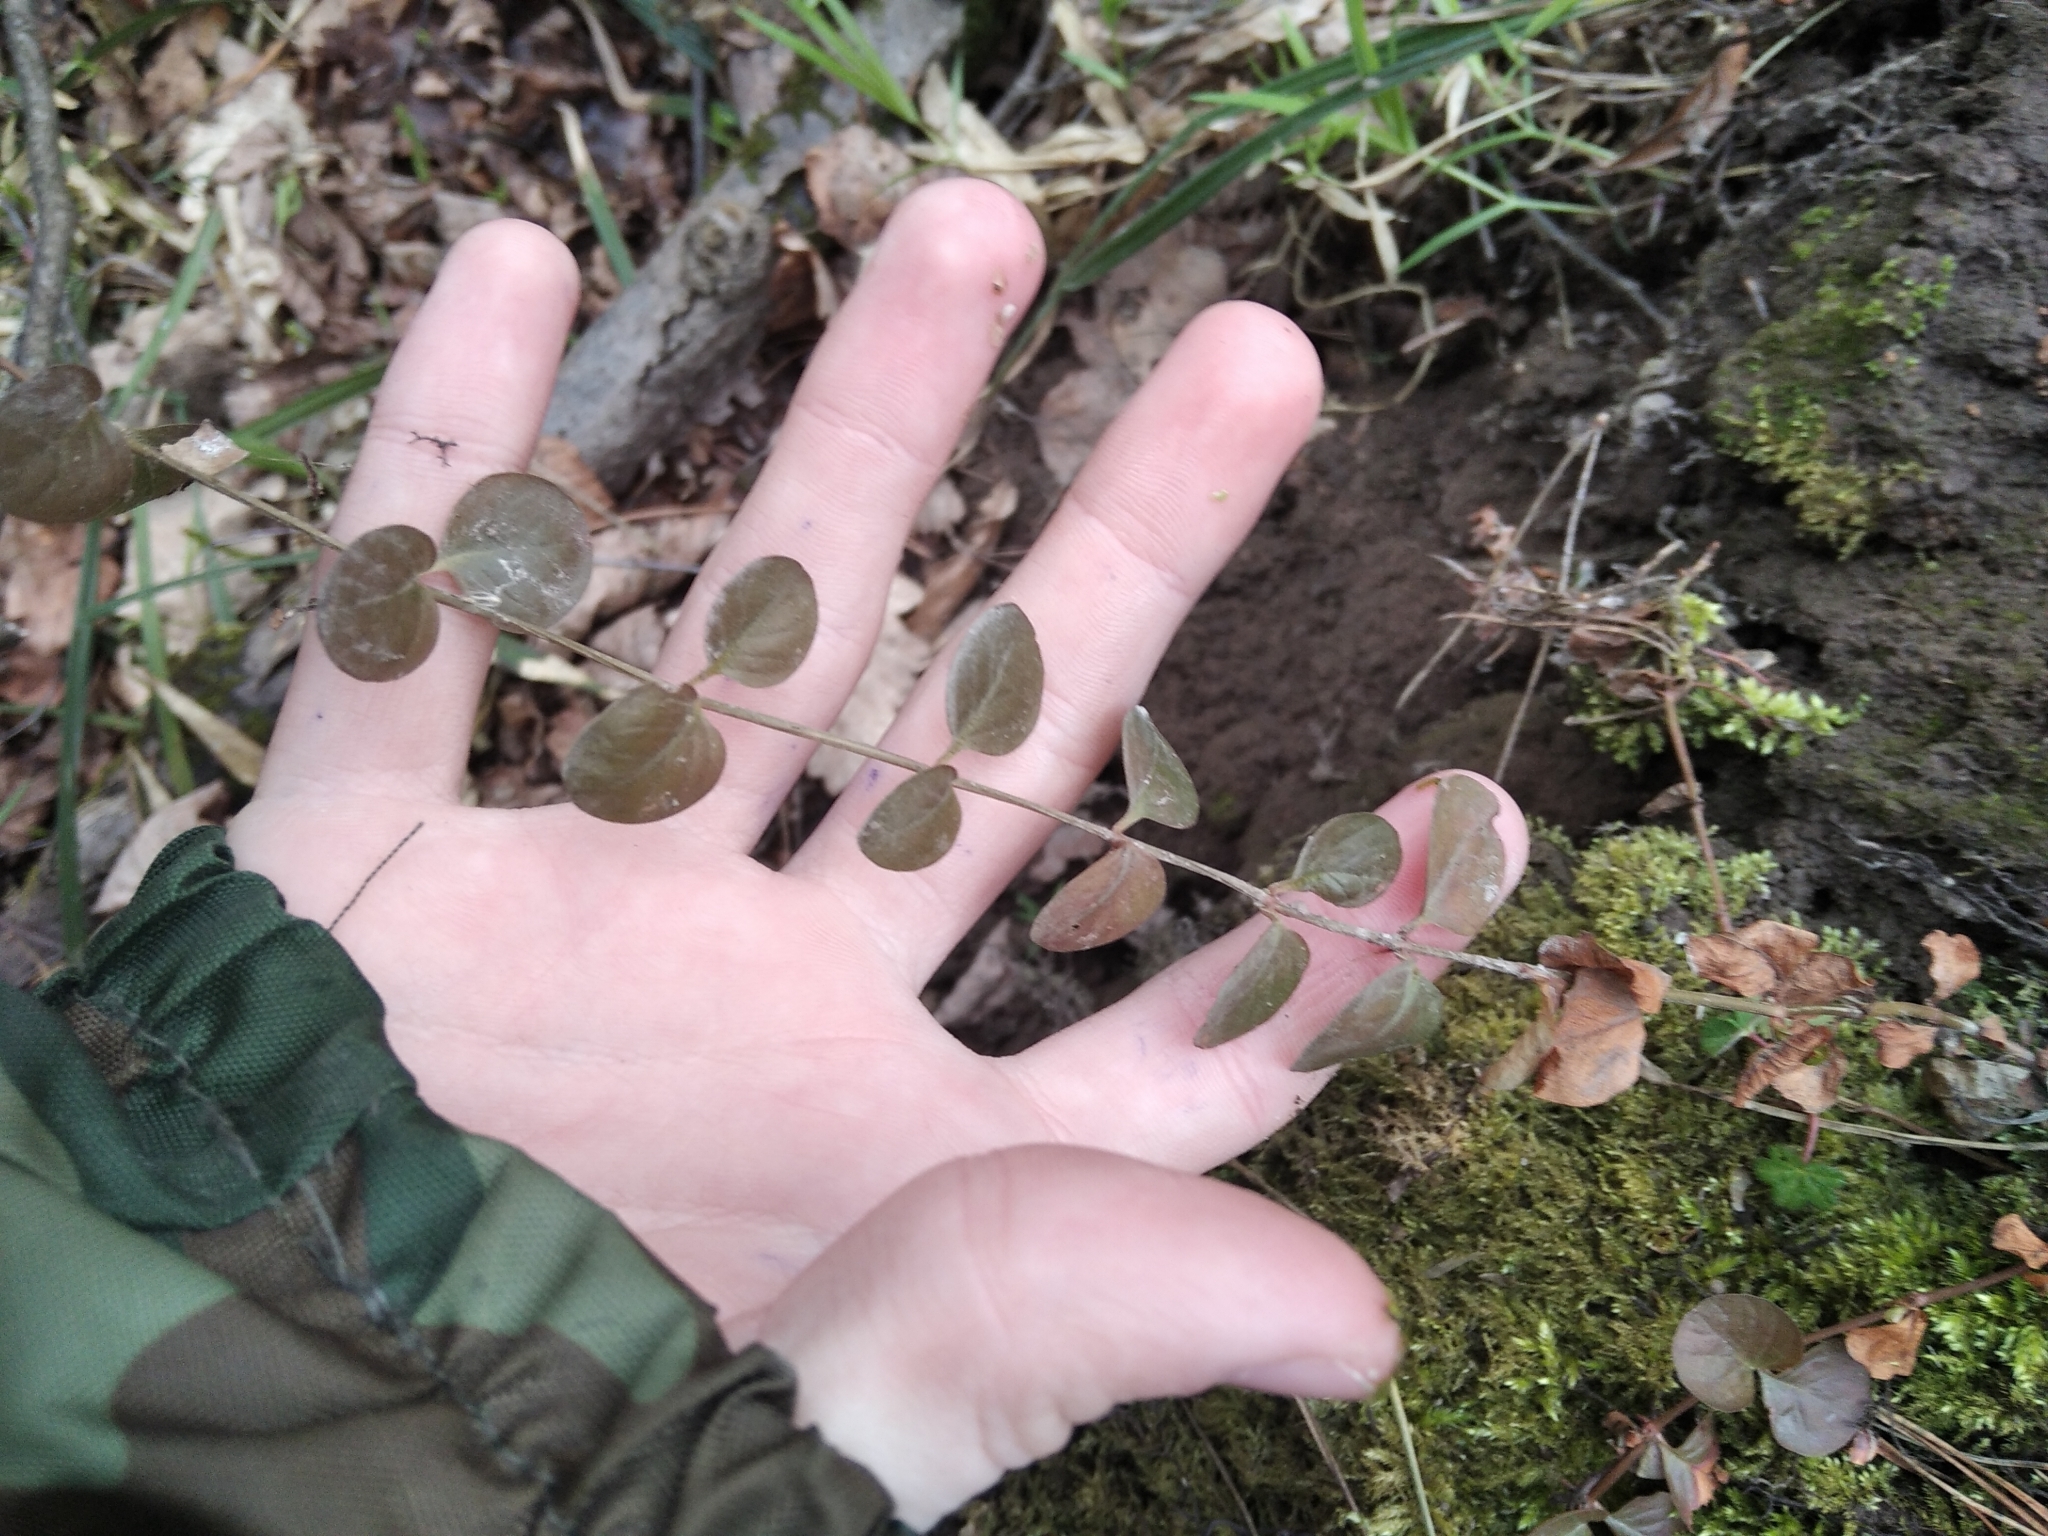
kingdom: Plantae
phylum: Tracheophyta
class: Magnoliopsida
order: Ericales
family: Primulaceae
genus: Lysimachia
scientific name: Lysimachia nummularia
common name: Moneywort
